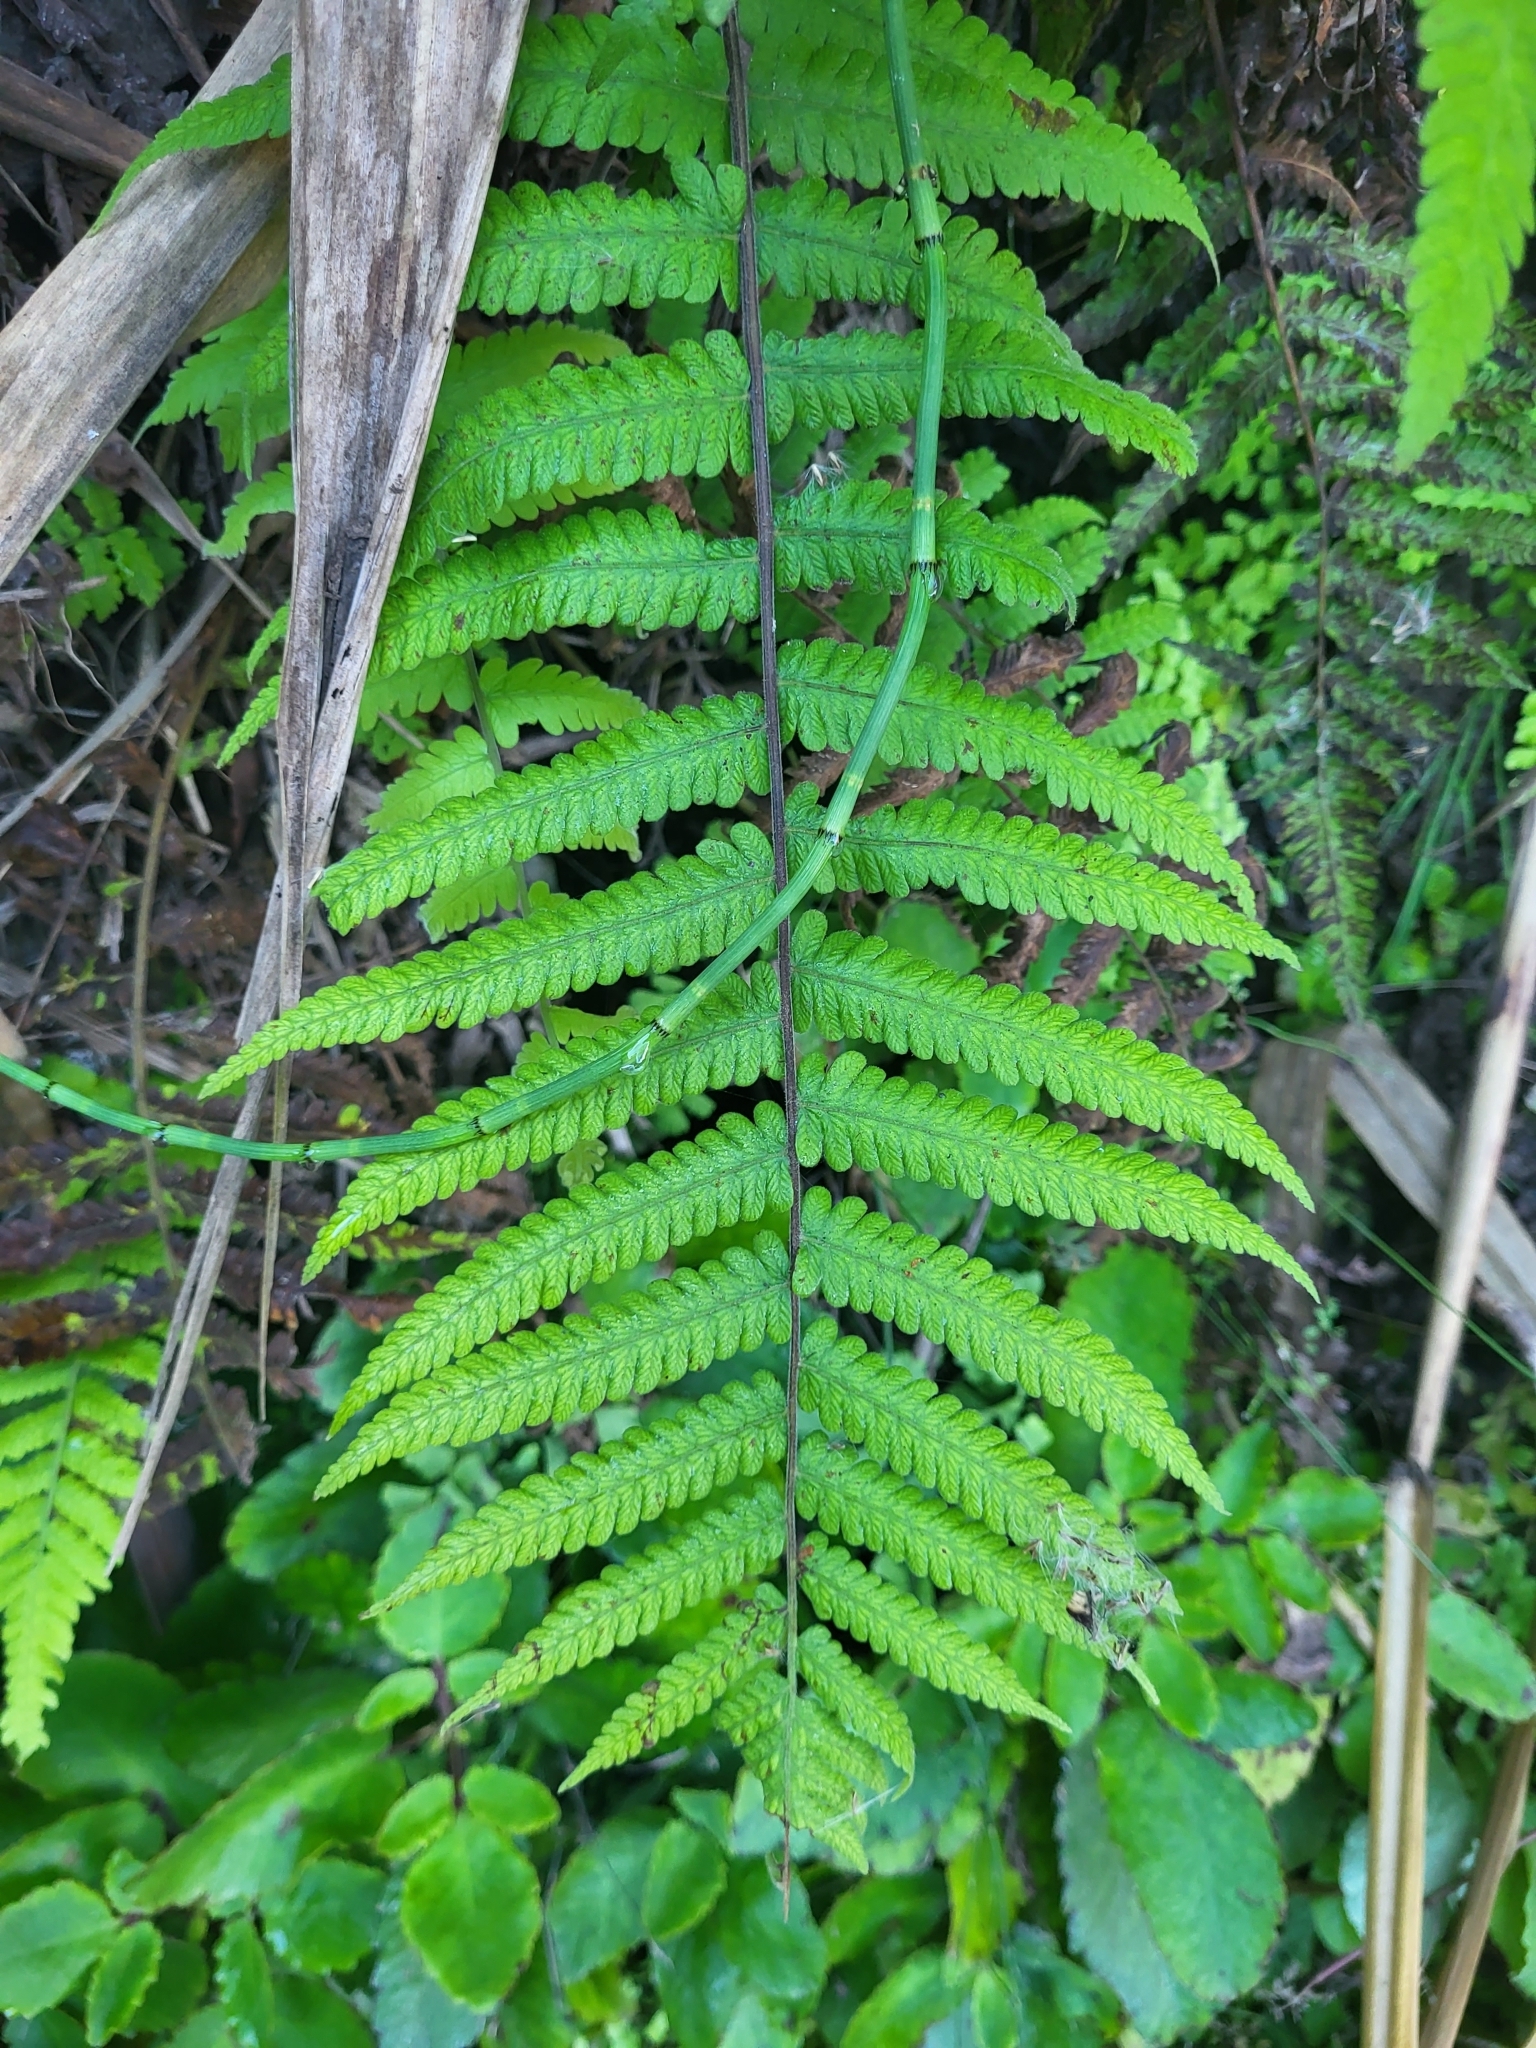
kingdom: Plantae
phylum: Tracheophyta
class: Polypodiopsida
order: Polypodiales
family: Thelypteridaceae
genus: Christella
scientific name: Christella dentata
